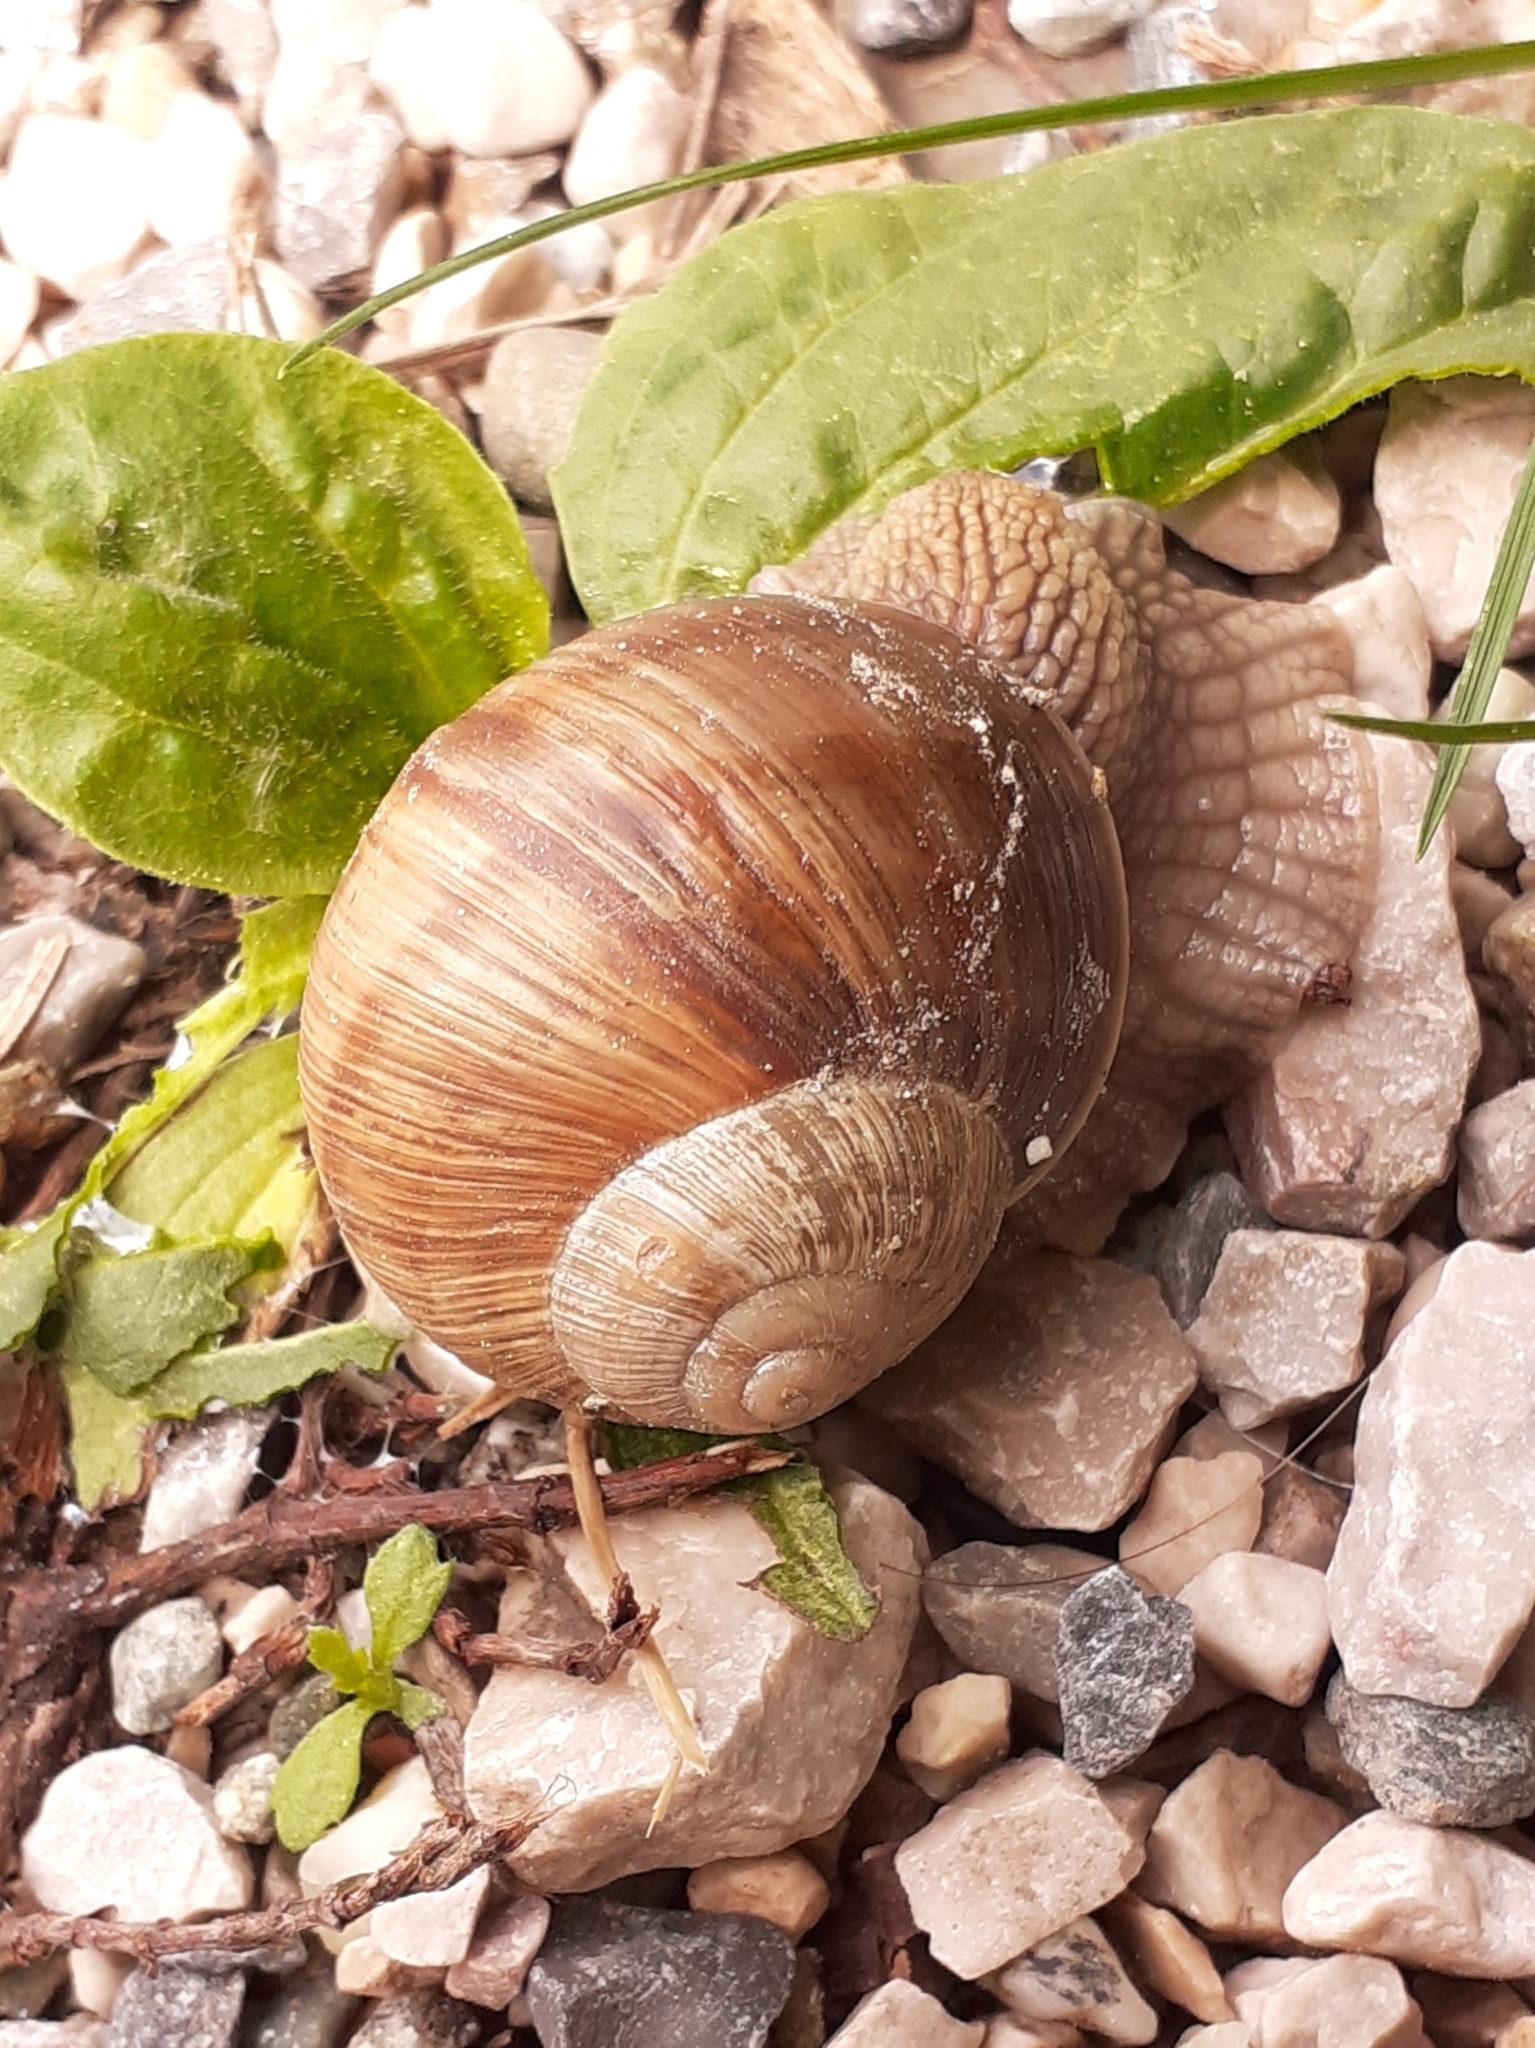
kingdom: Animalia
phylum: Mollusca
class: Gastropoda
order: Stylommatophora
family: Helicidae
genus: Helix
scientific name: Helix pomatia
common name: Roman snail
